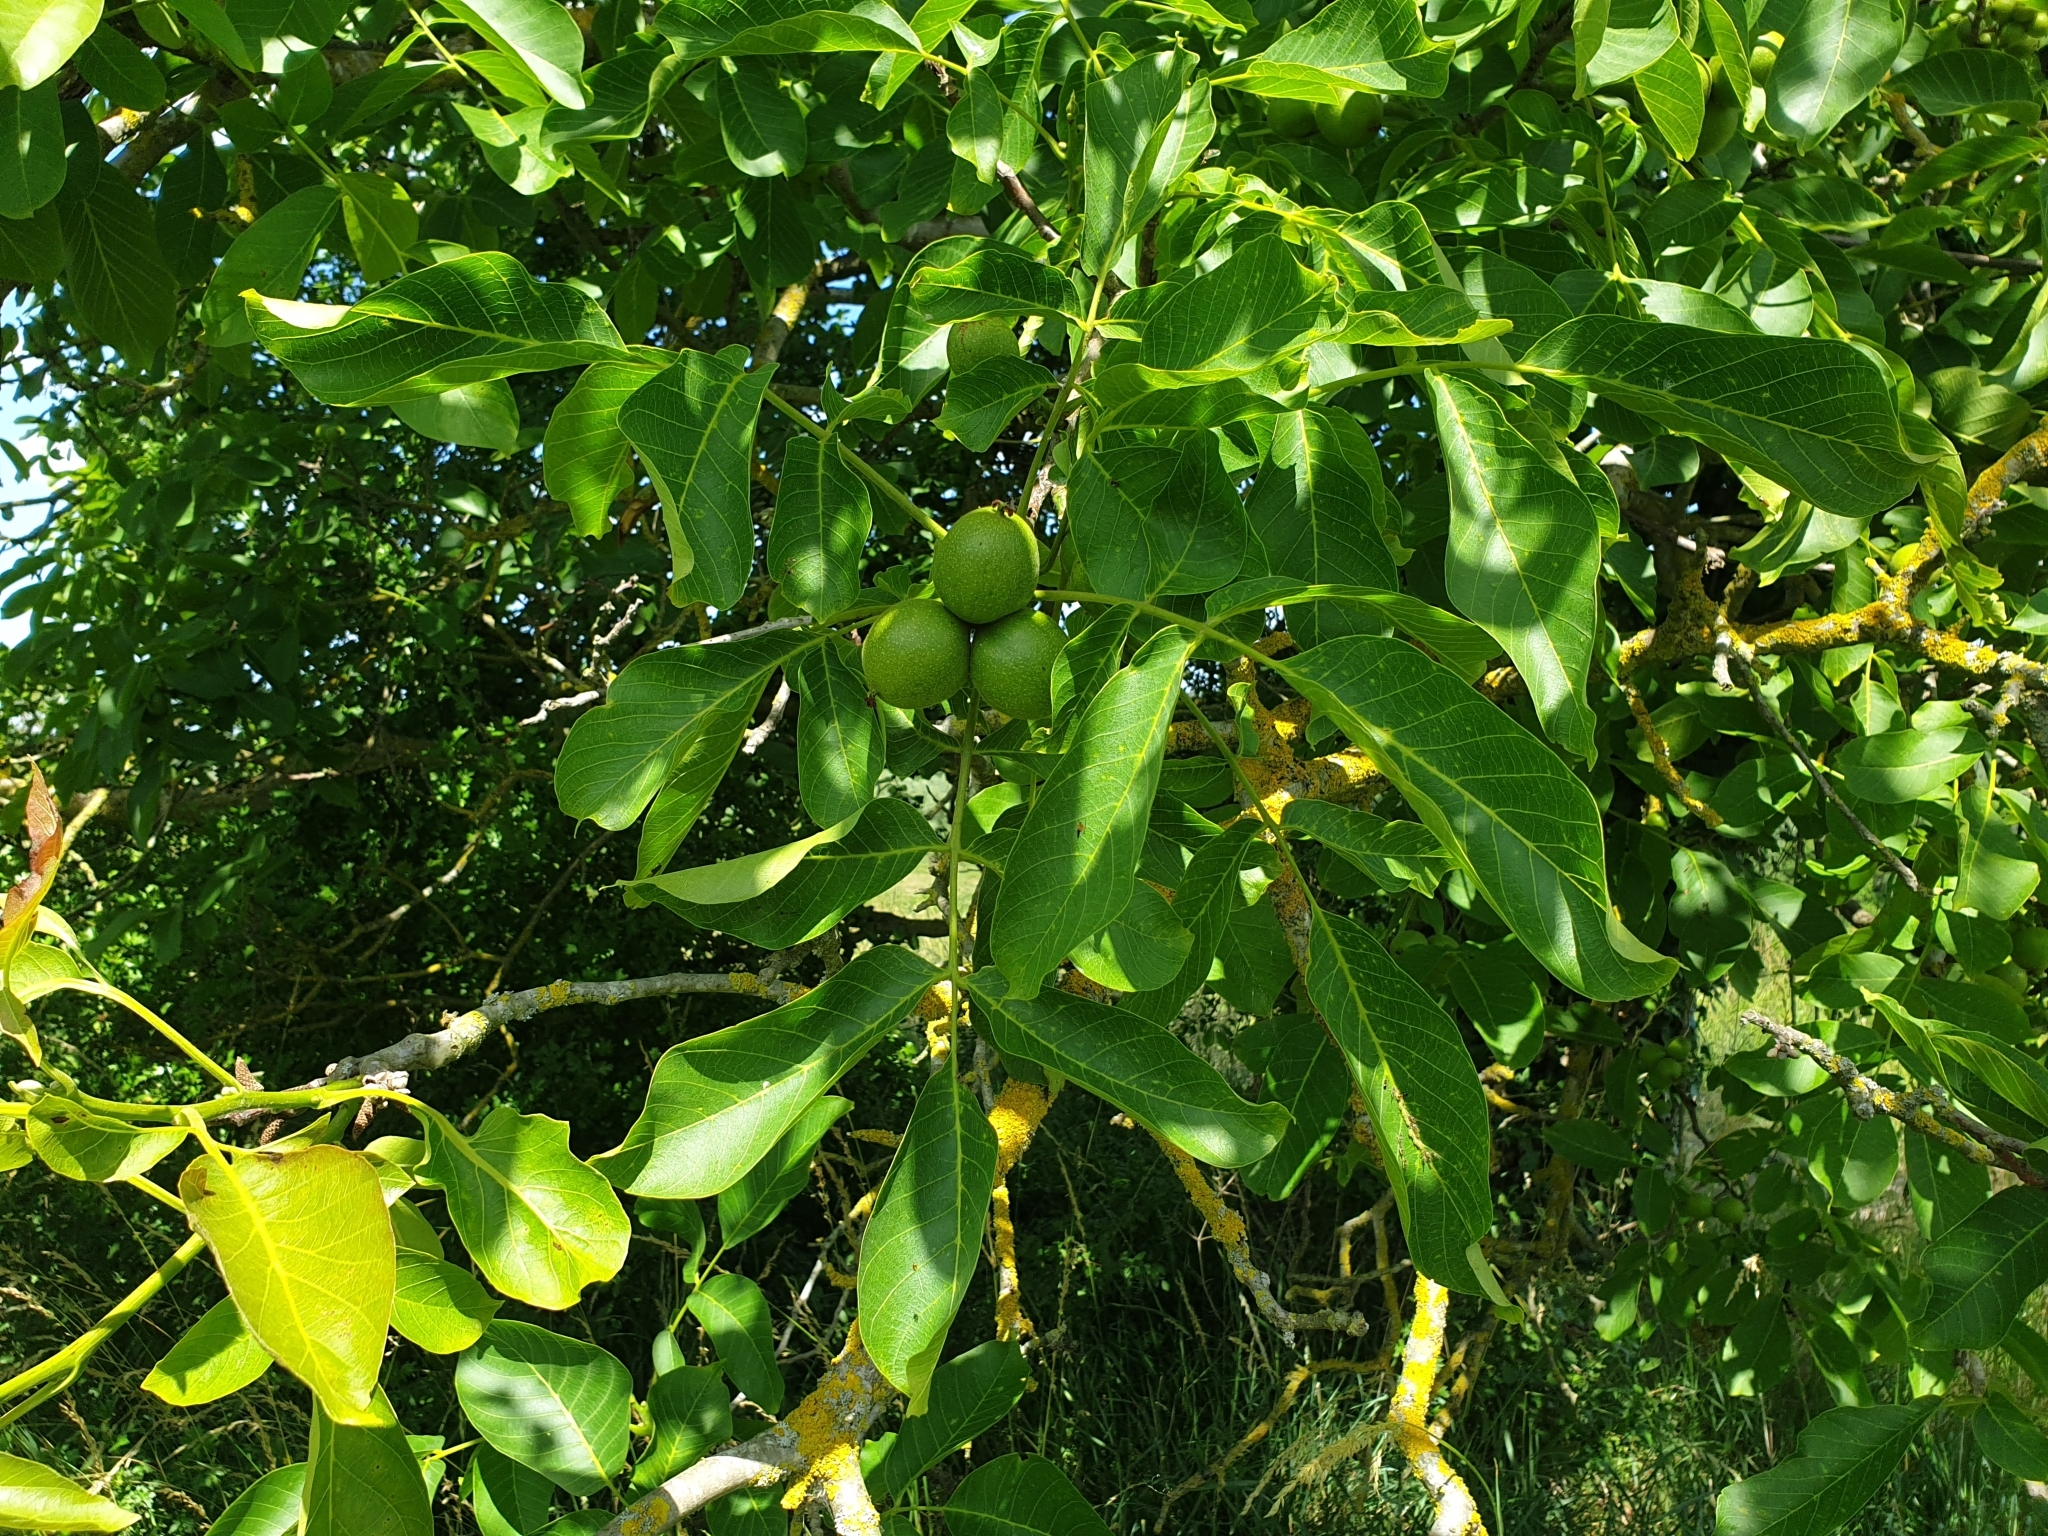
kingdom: Plantae
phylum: Tracheophyta
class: Magnoliopsida
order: Fagales
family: Juglandaceae
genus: Juglans
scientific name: Juglans regia
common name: Walnut
